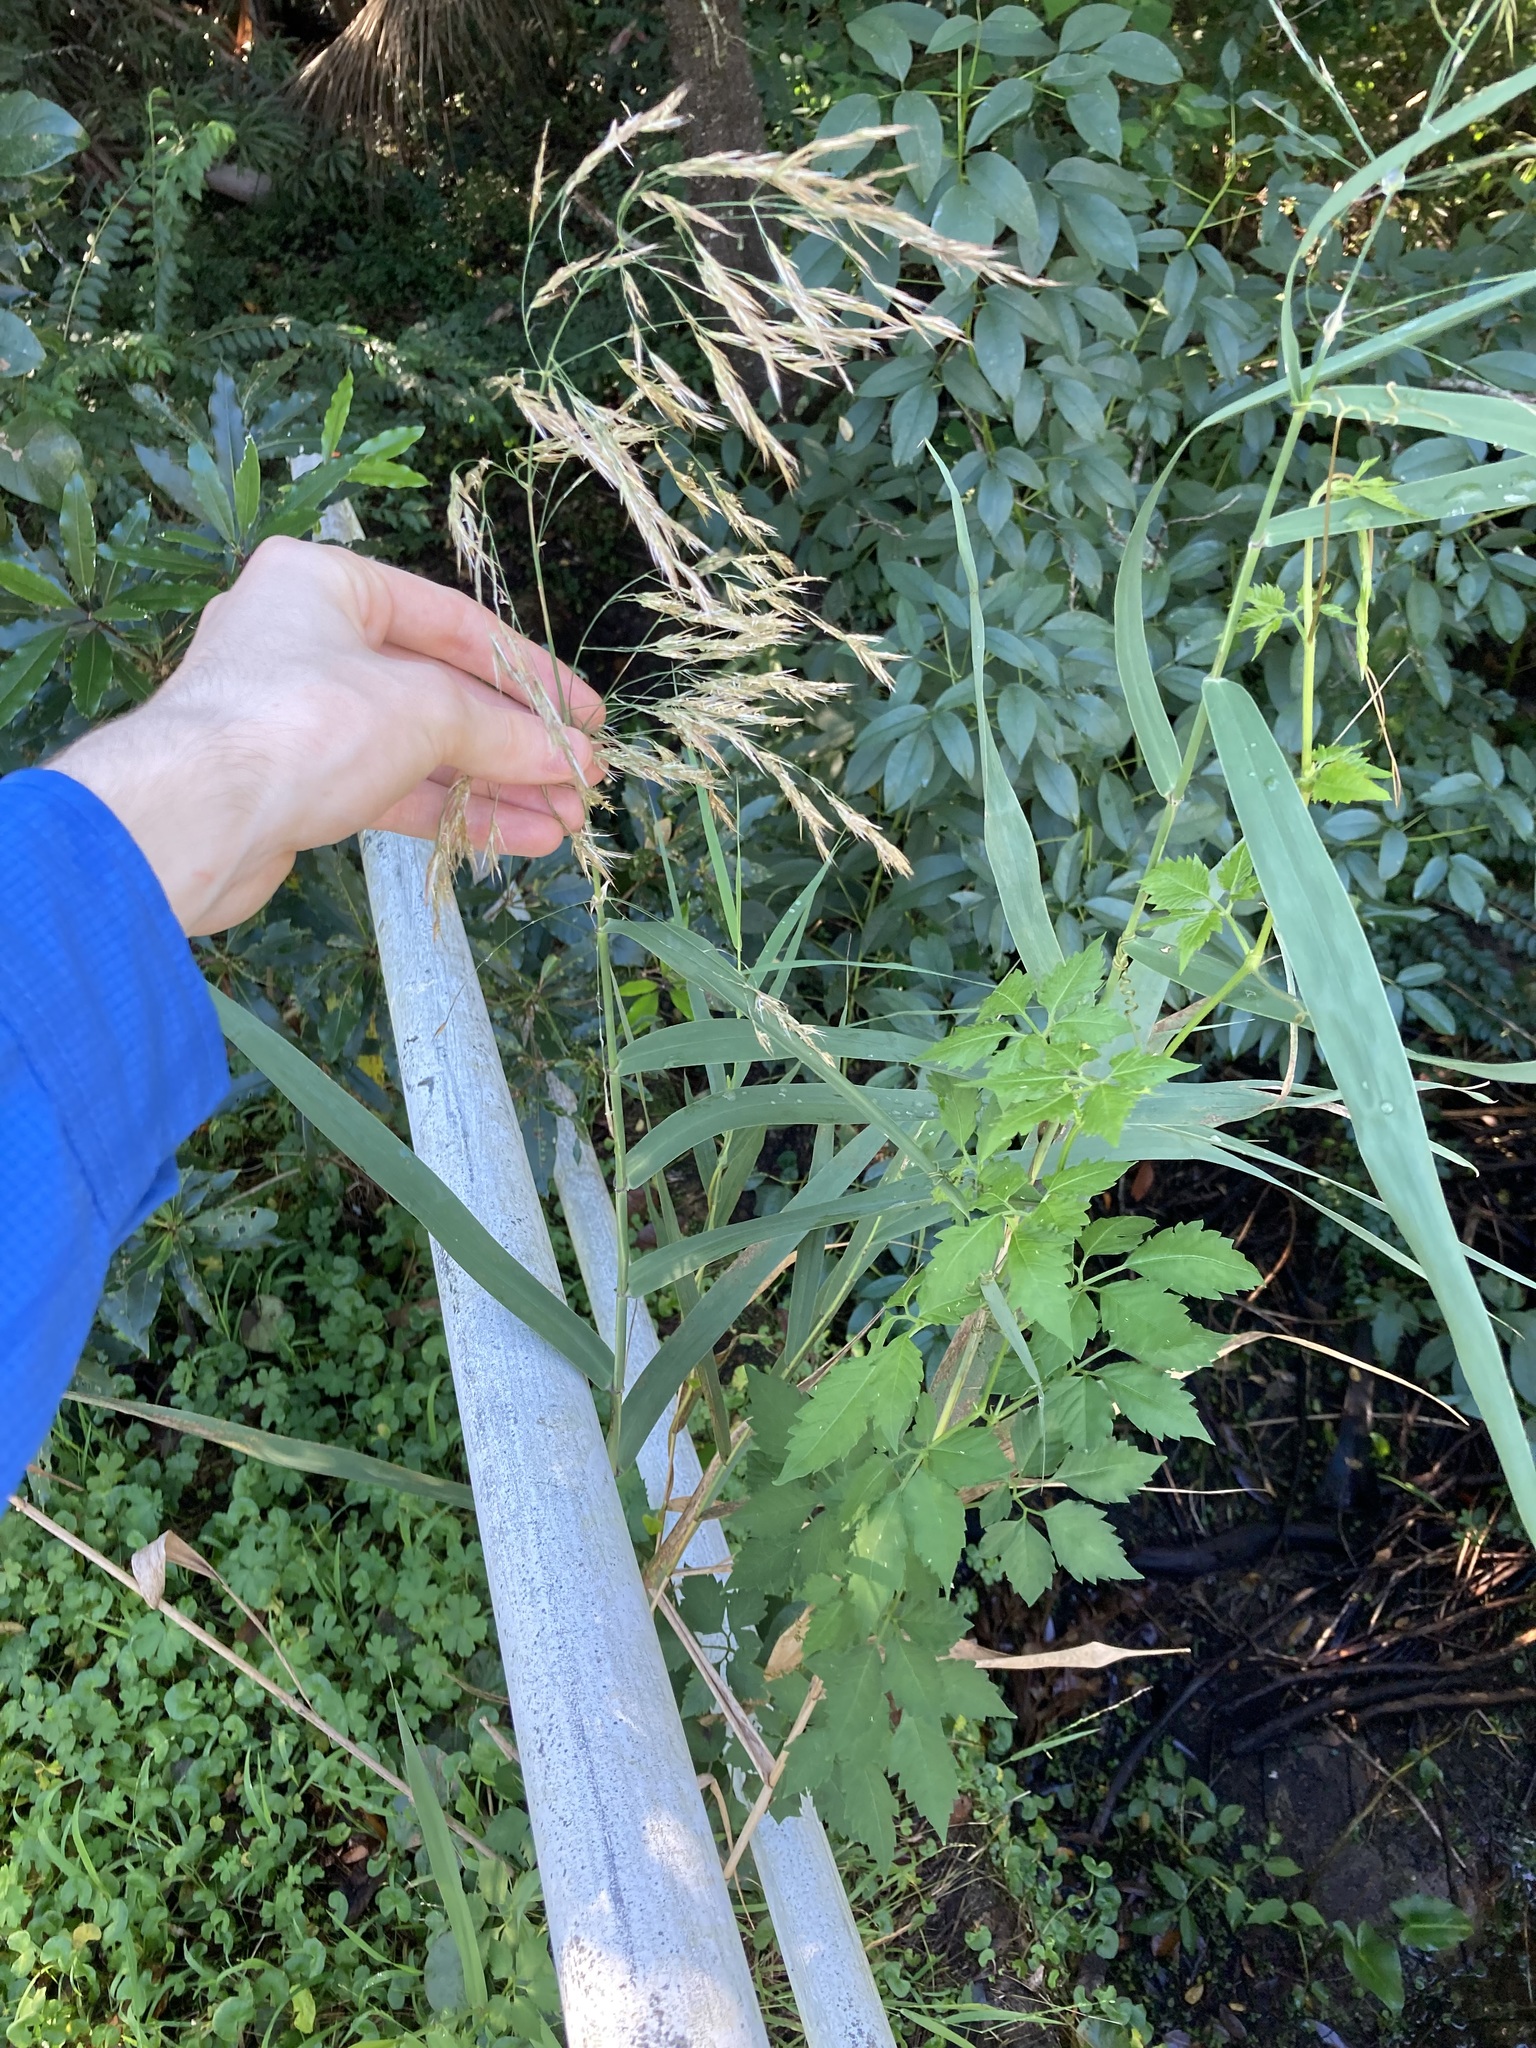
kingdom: Plantae
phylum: Tracheophyta
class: Liliopsida
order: Poales
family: Poaceae
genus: Phragmites
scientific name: Phragmites australis
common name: Common reed
